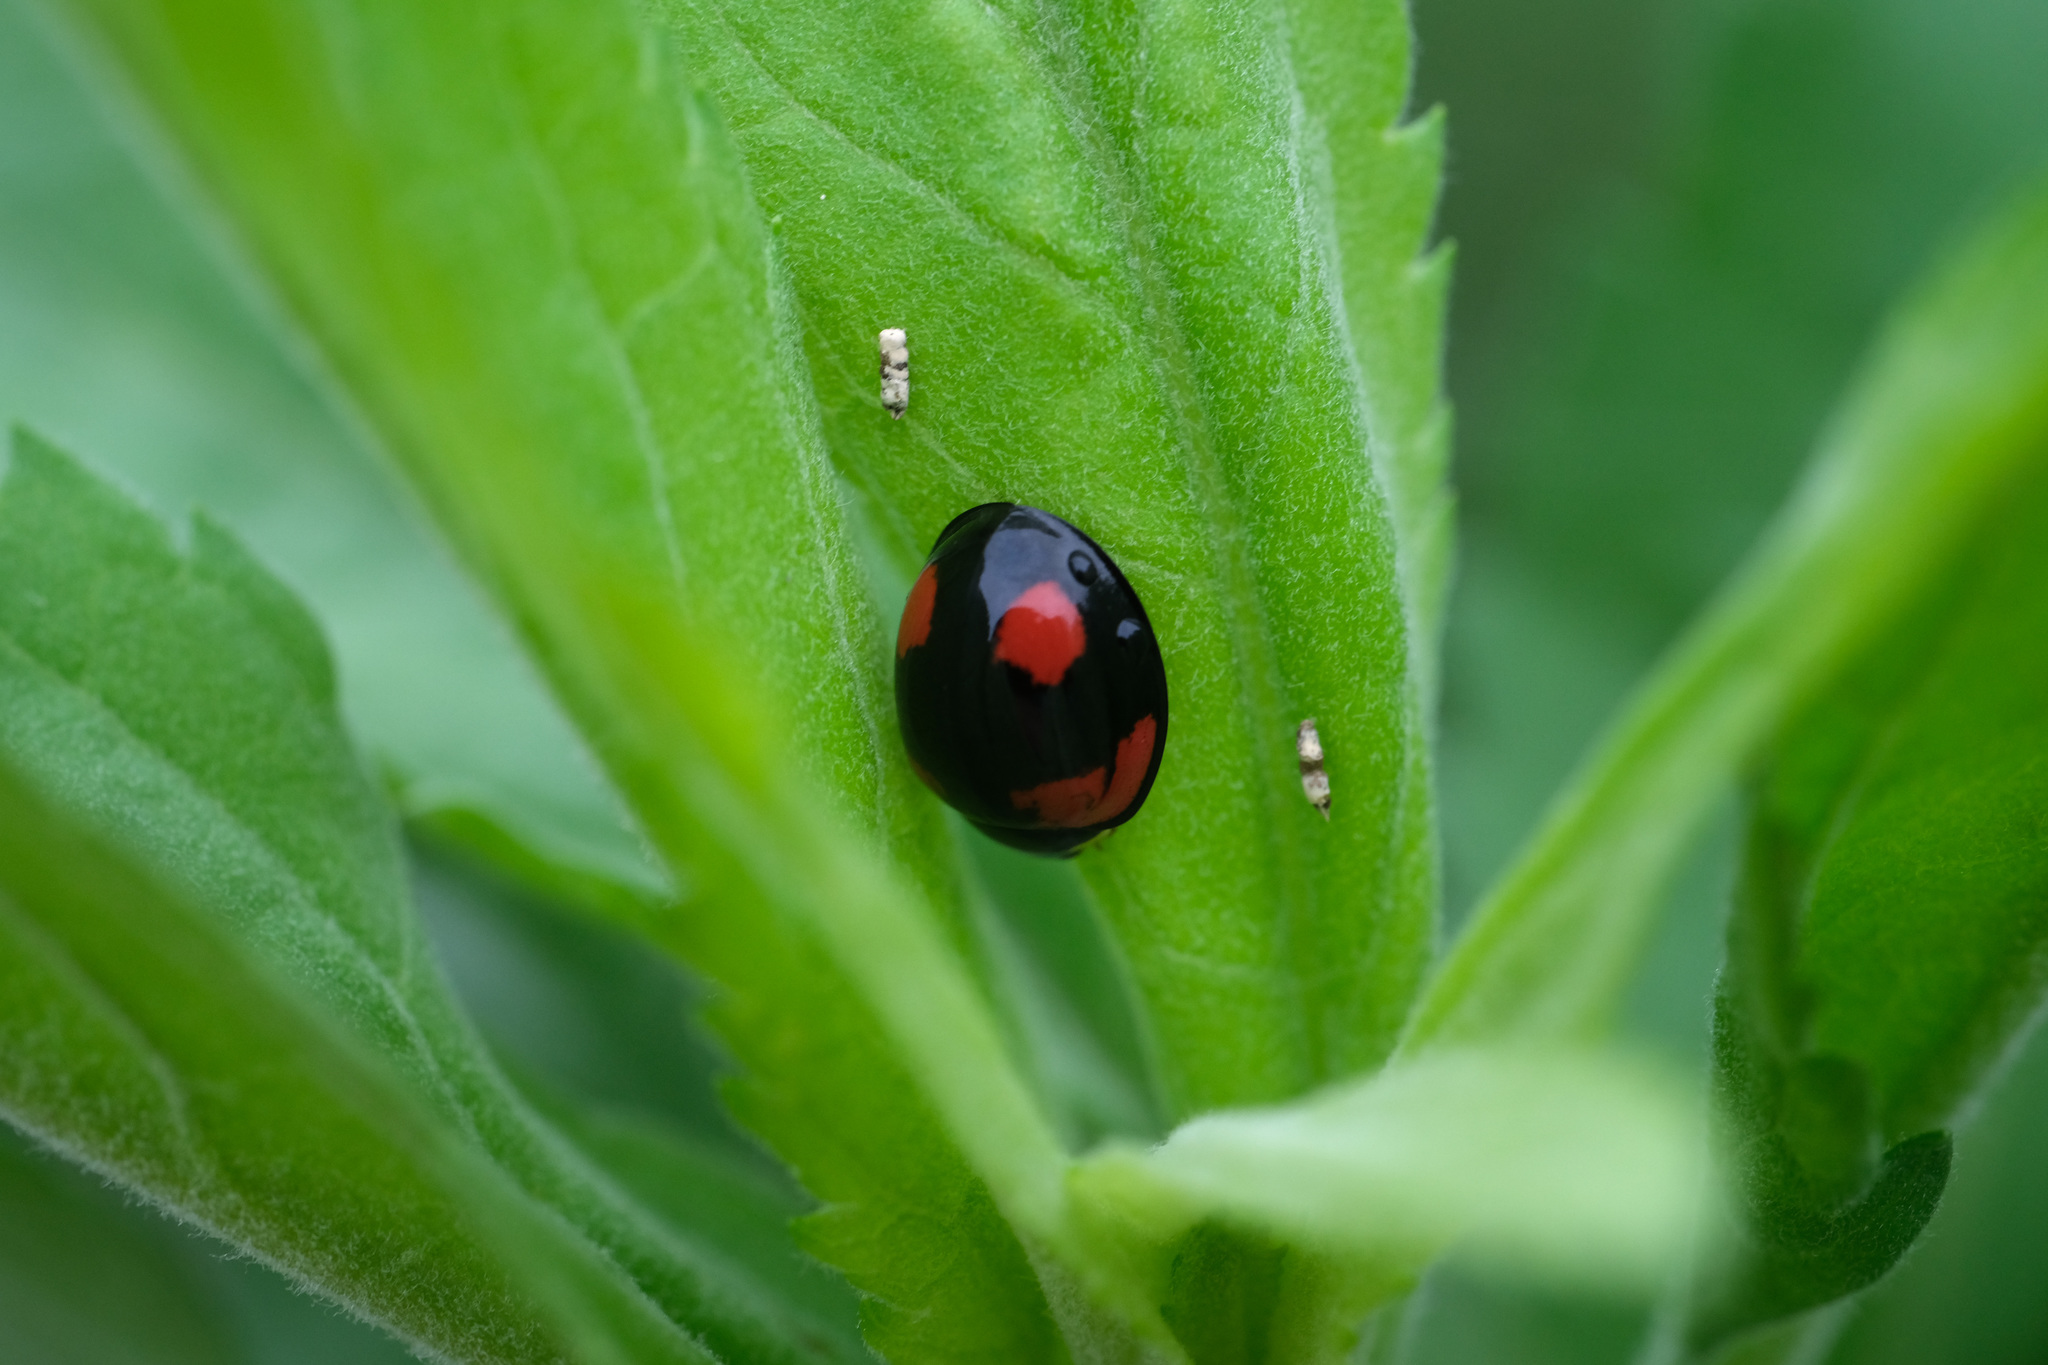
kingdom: Animalia
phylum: Arthropoda
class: Insecta
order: Coleoptera
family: Coccinellidae
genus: Cheilomenes
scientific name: Cheilomenes sexmaculata
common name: Ladybird beetle
